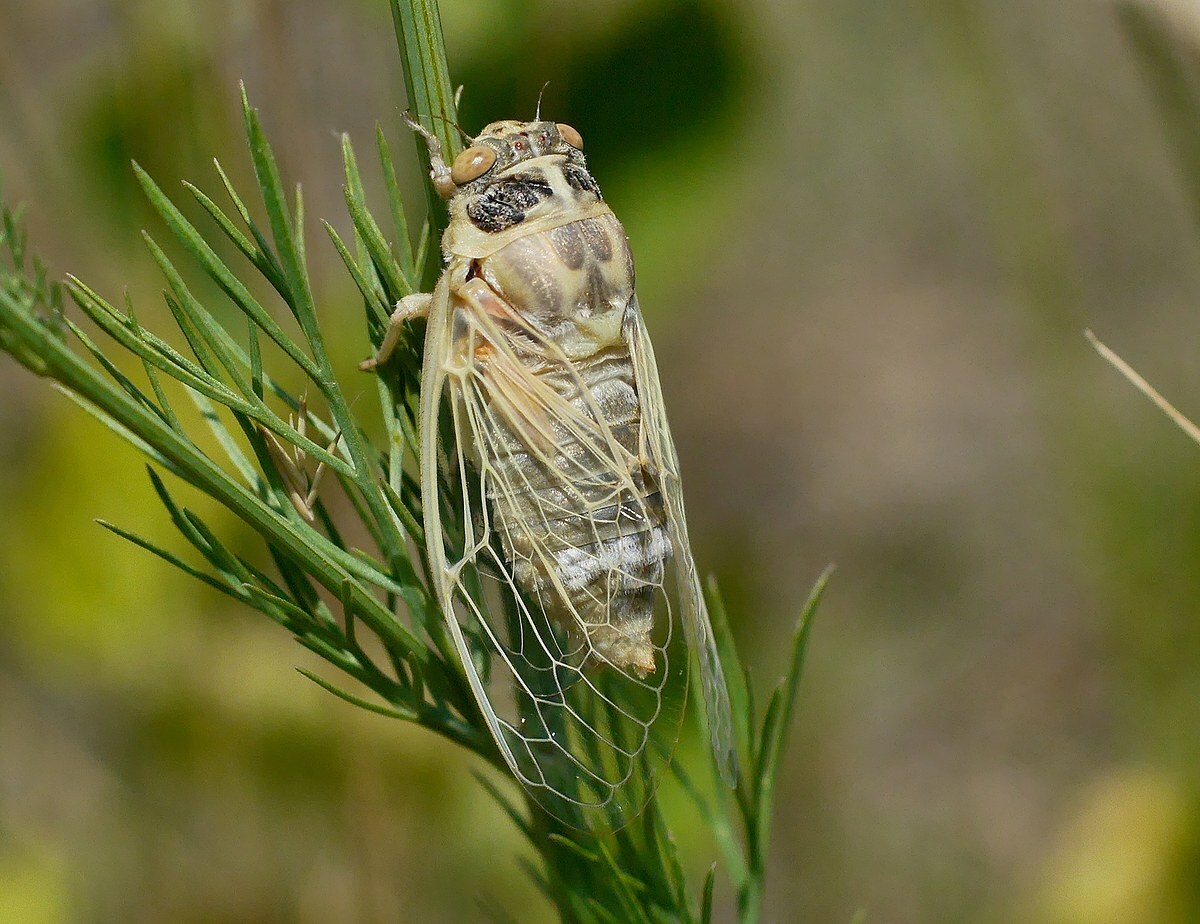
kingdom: Animalia
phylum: Arthropoda
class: Insecta
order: Hemiptera
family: Cicadidae
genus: Cicadatra
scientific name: Cicadatra platyptera
